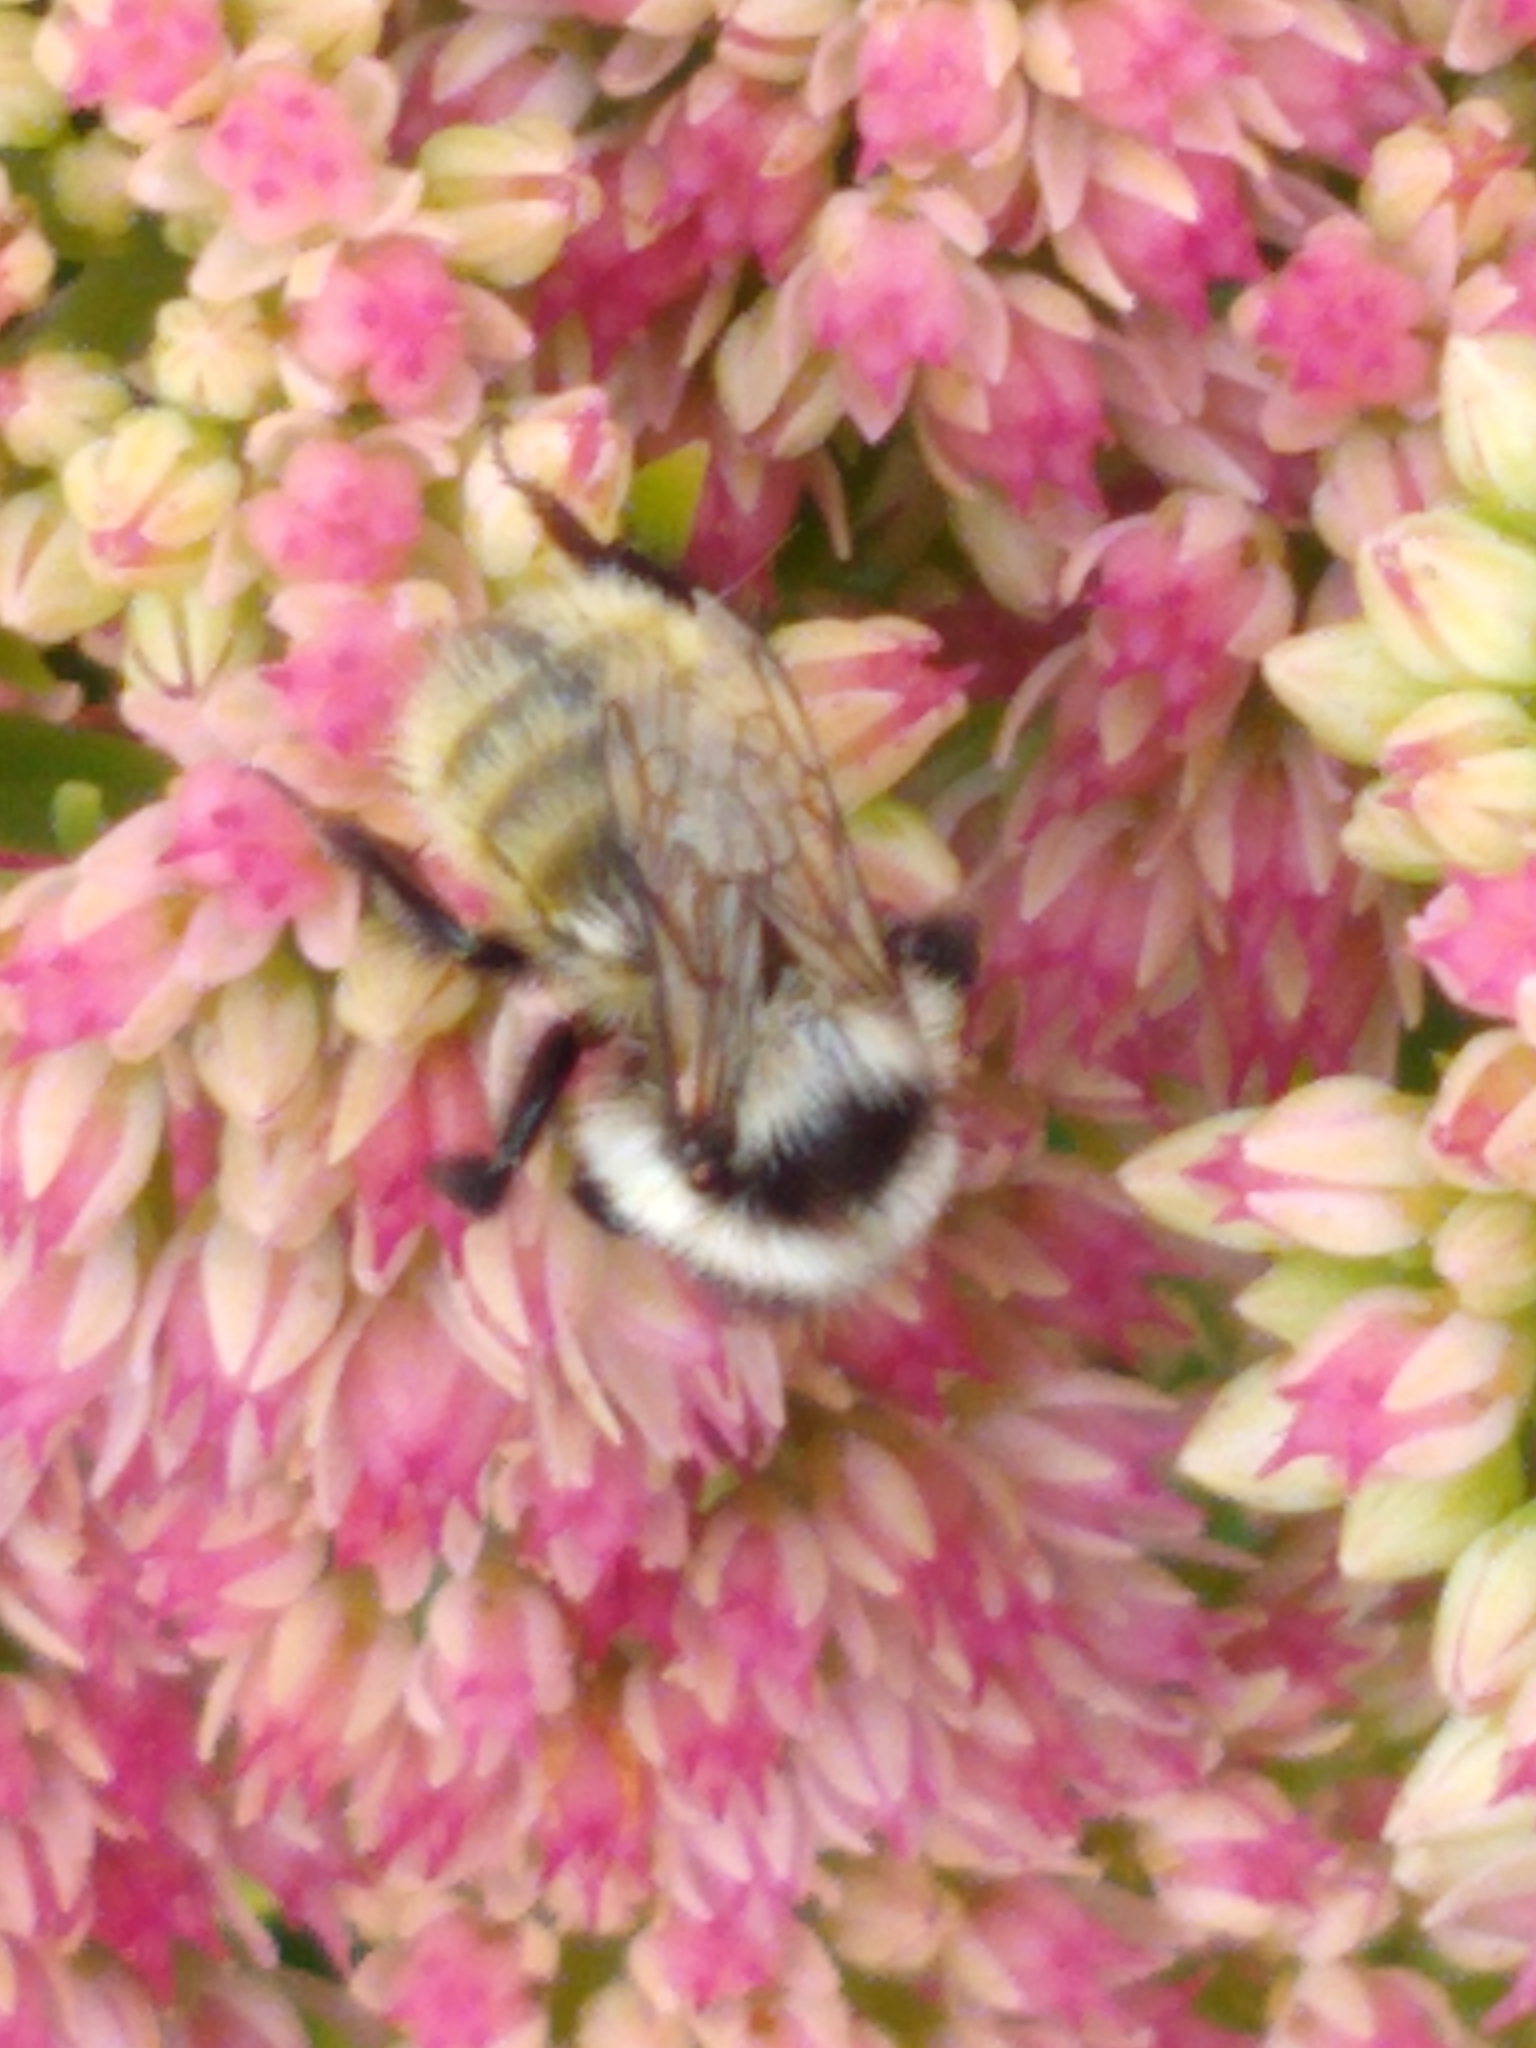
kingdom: Animalia
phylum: Arthropoda
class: Insecta
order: Hymenoptera
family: Apidae
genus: Bombus
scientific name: Bombus ternarius
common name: Tri-colored bumble bee
